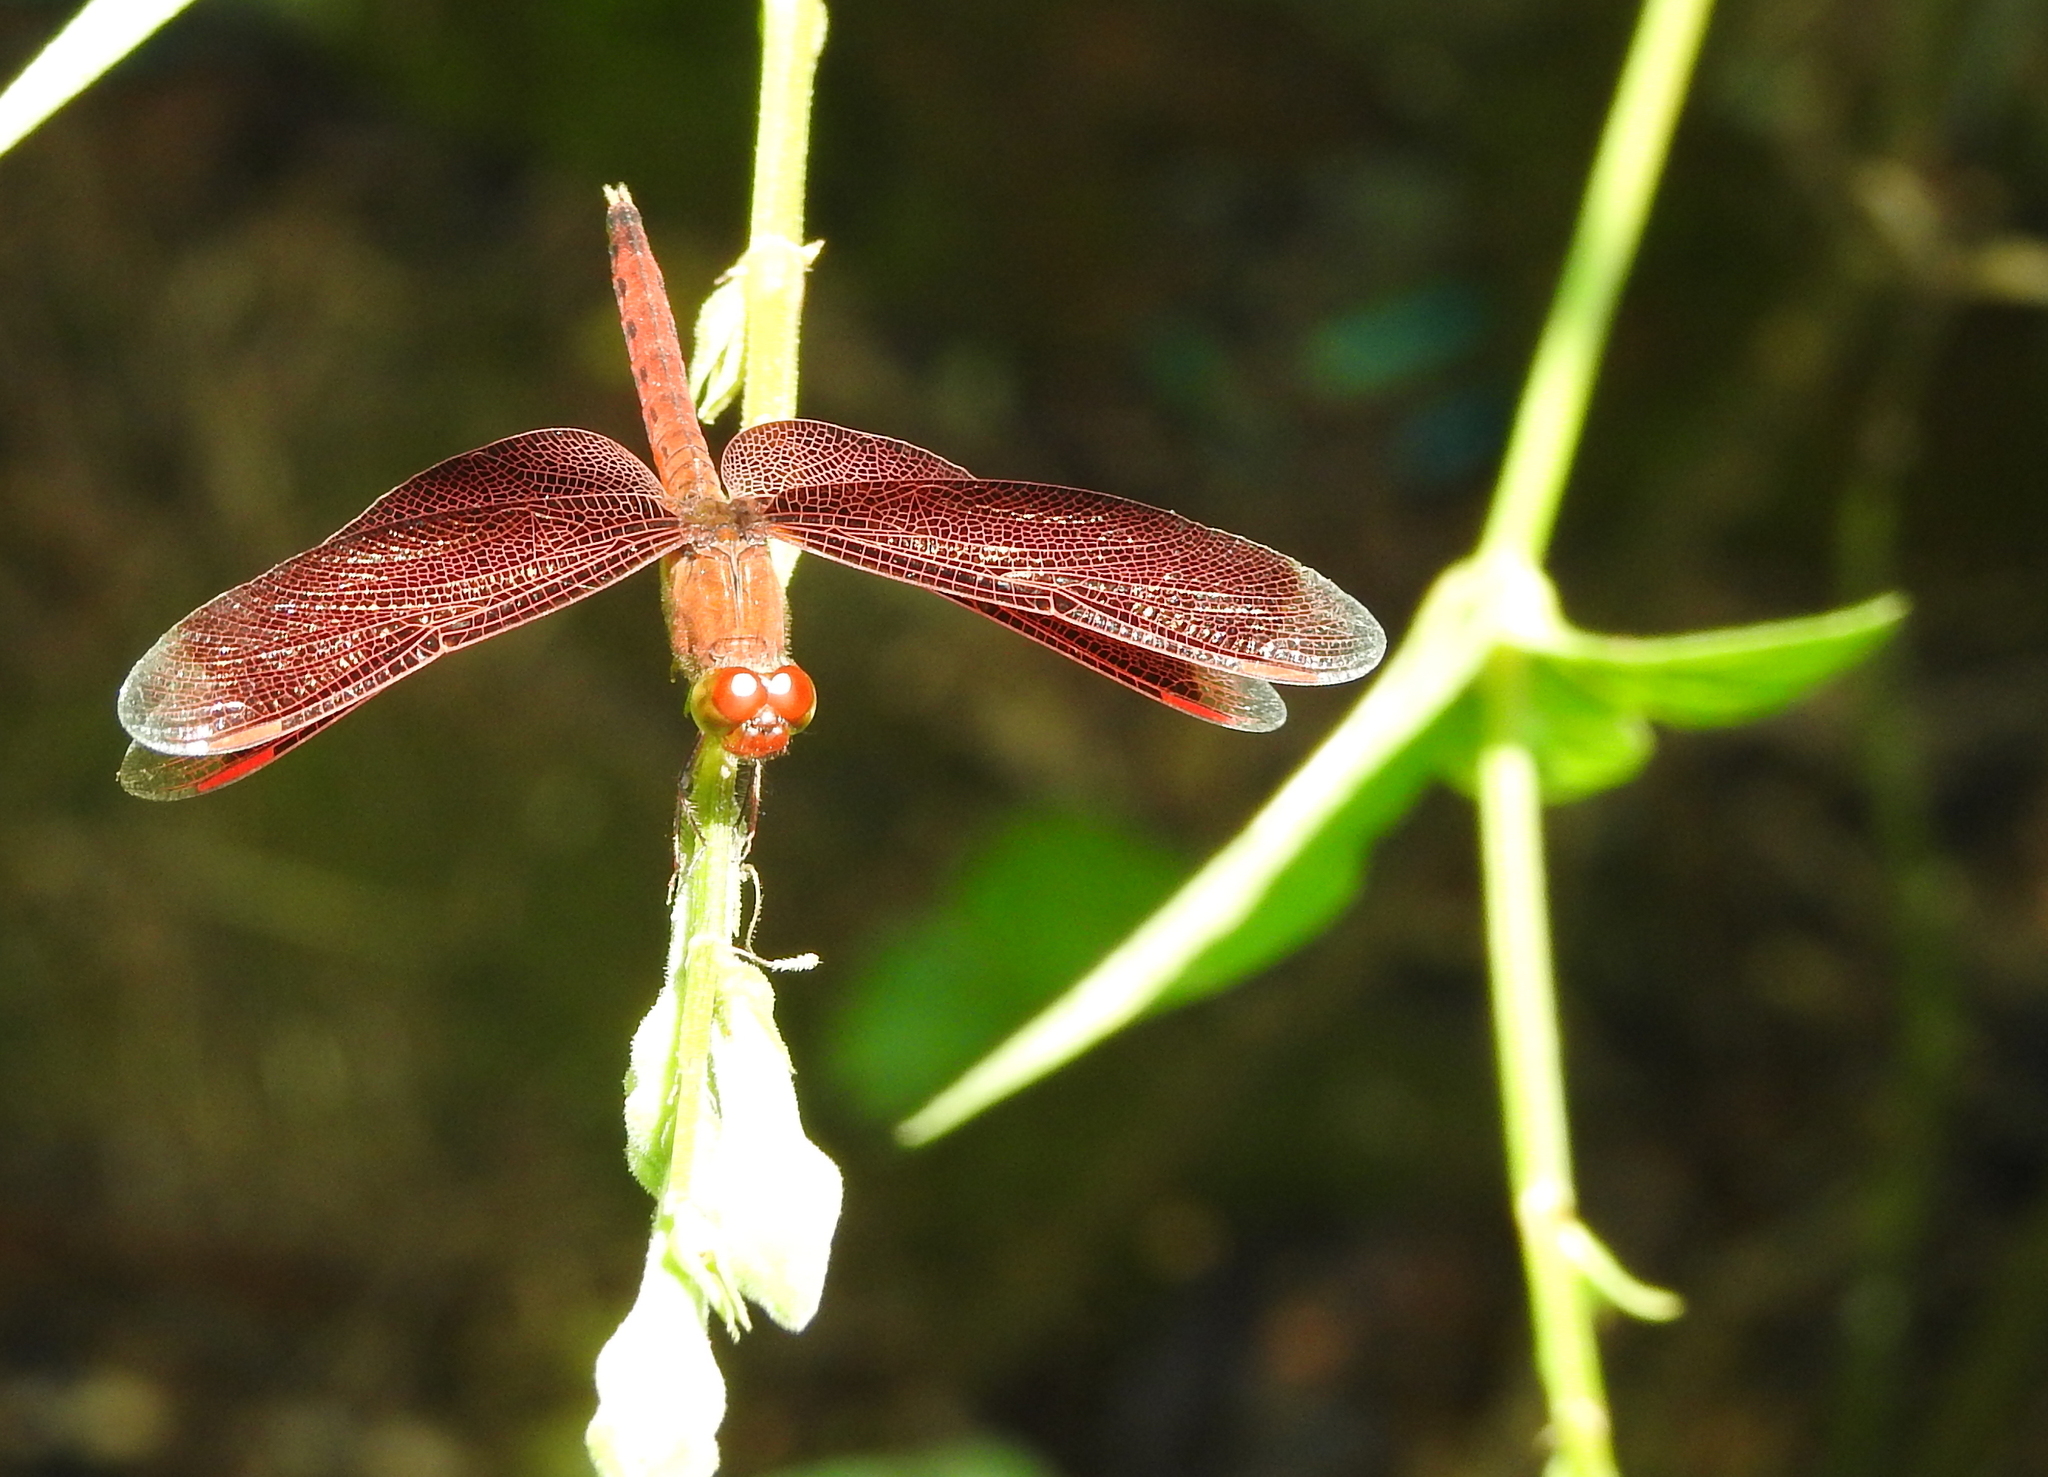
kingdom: Animalia
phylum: Arthropoda
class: Insecta
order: Odonata
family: Libellulidae
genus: Neurothemis
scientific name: Neurothemis fluctuans
